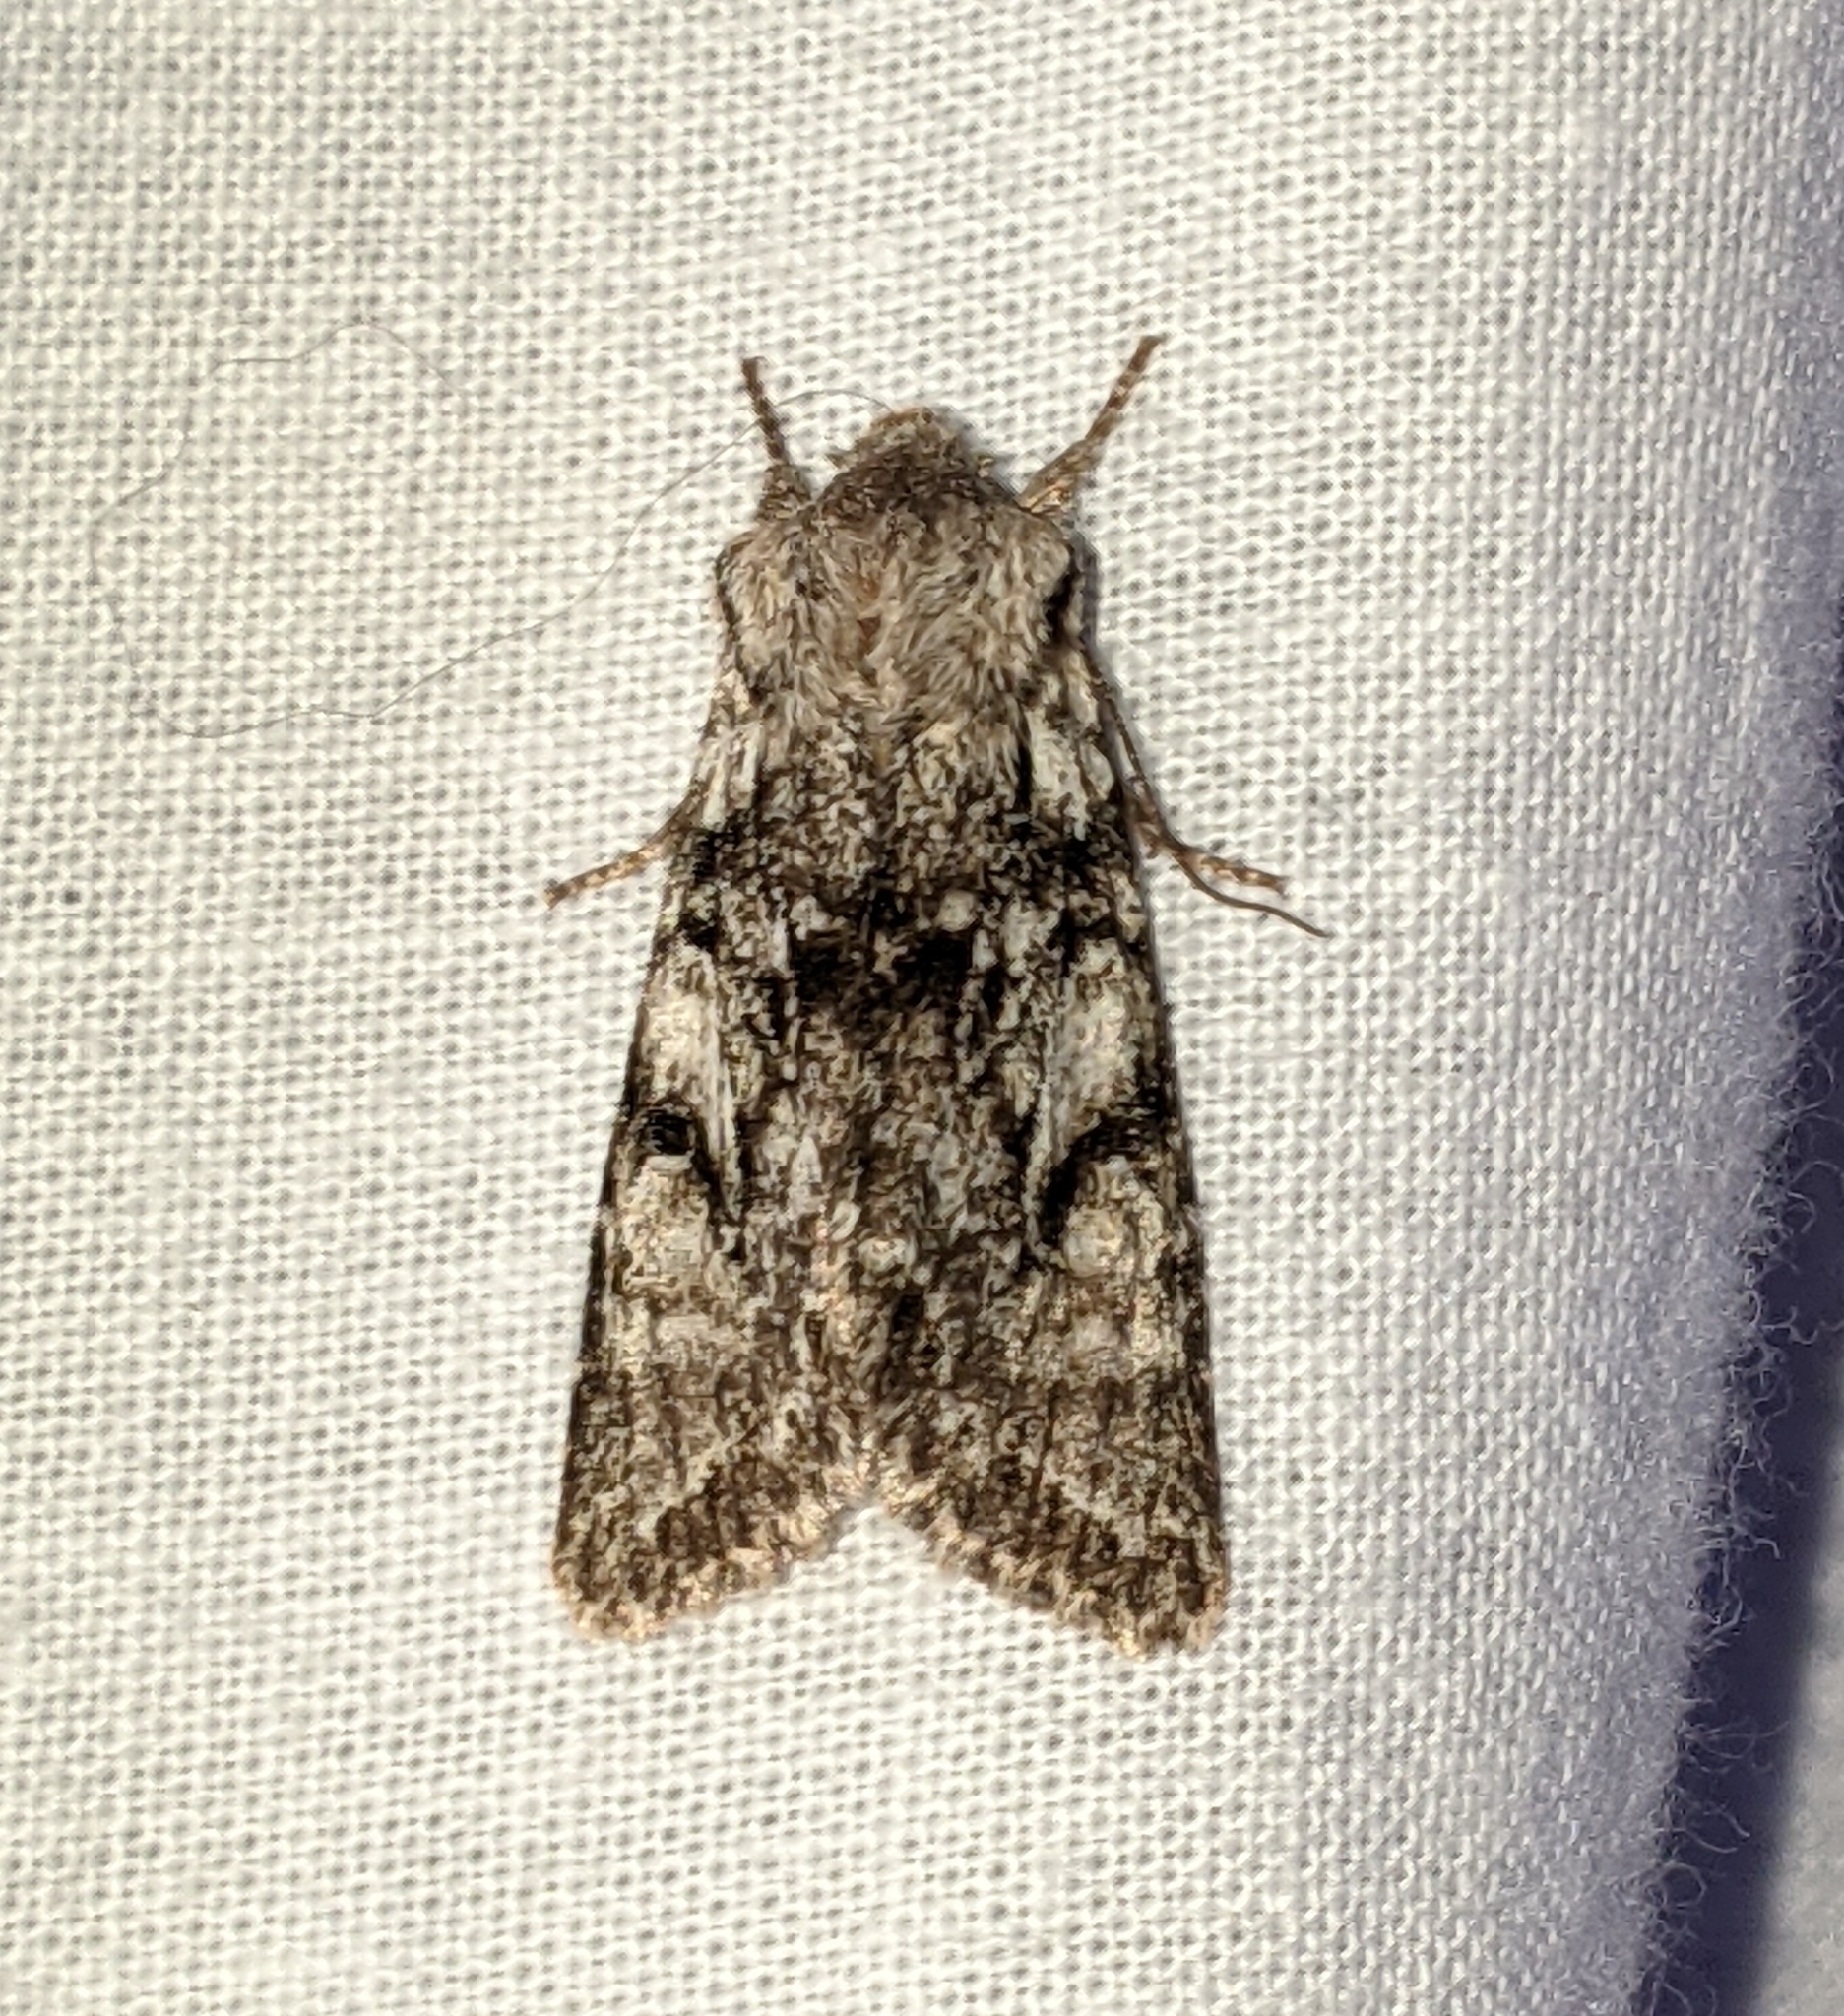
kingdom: Animalia
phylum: Arthropoda
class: Insecta
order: Lepidoptera
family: Noctuidae
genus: Egira
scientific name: Egira simplex
